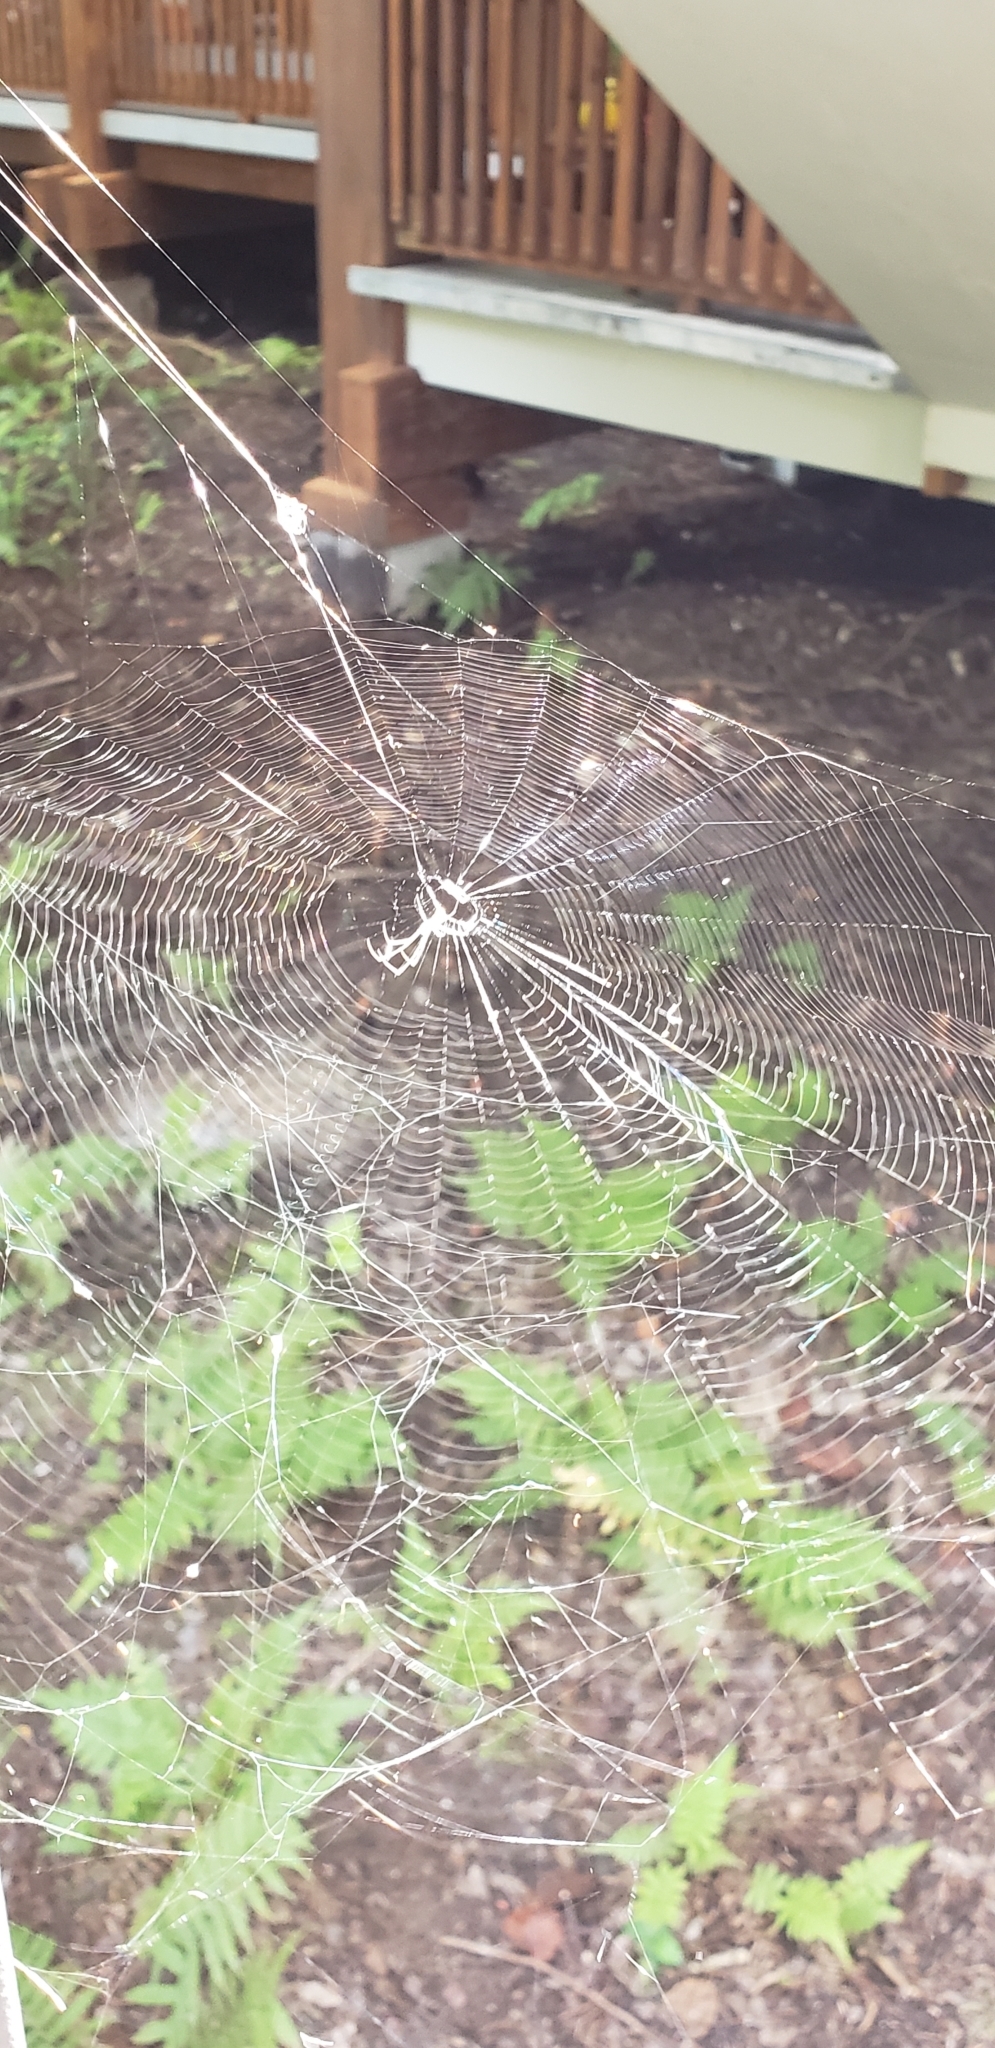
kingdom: Animalia
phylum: Arthropoda
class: Arachnida
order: Araneae
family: Tetragnathidae
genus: Leucauge
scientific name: Leucauge argyra
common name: Longjawed orb weavers
